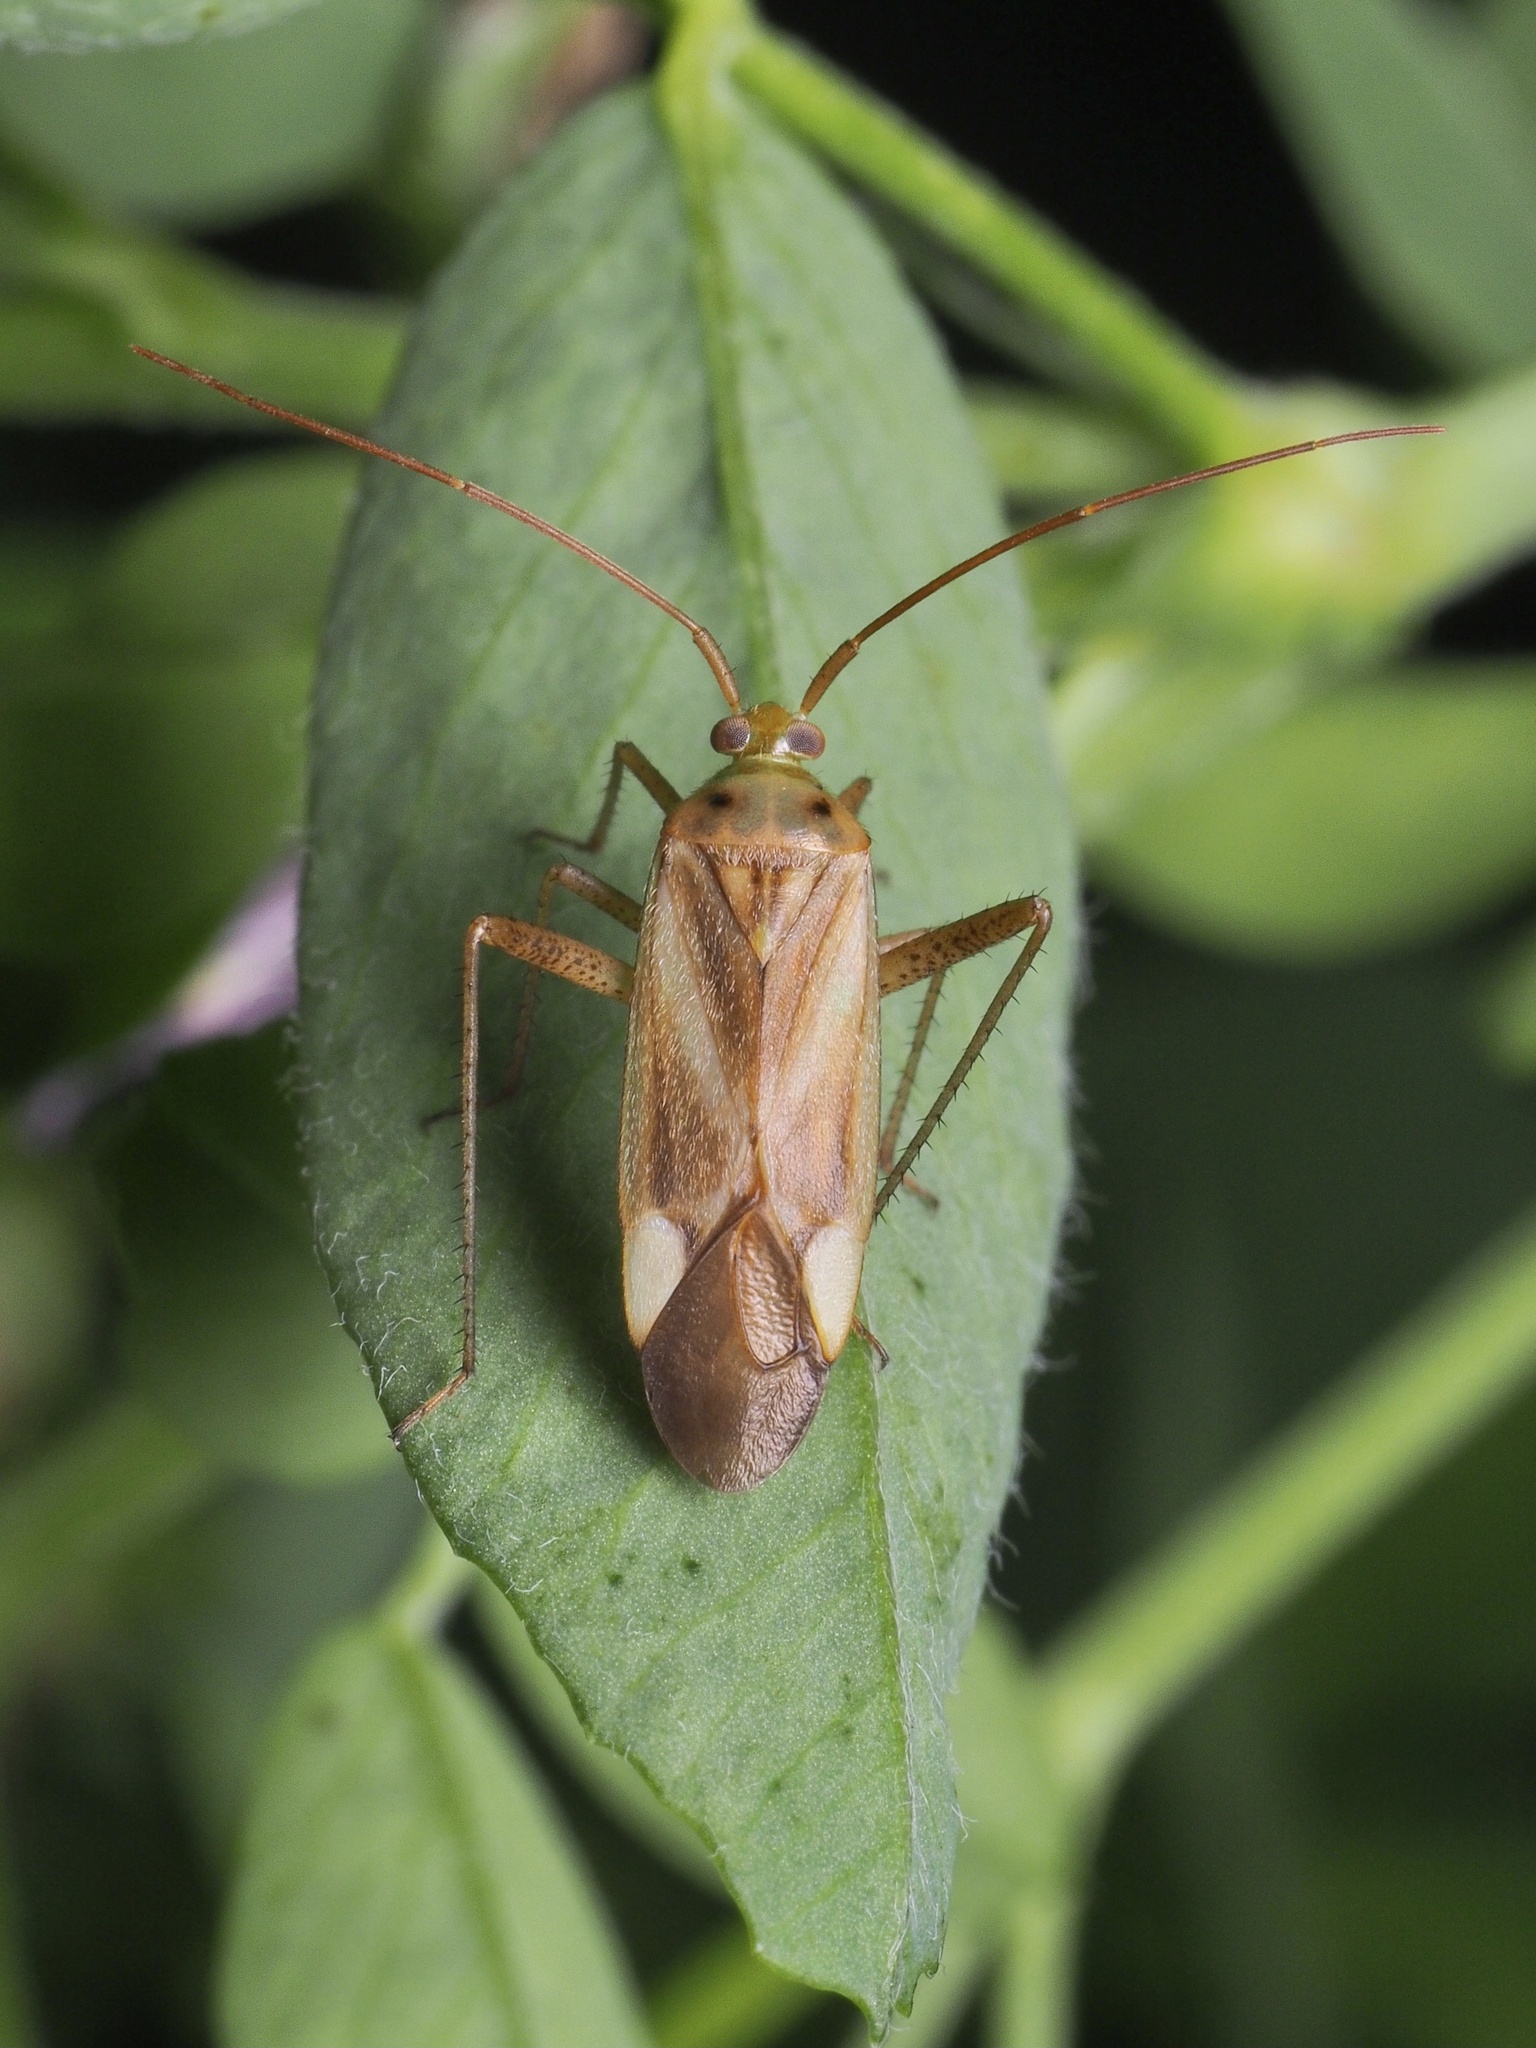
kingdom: Animalia
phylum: Arthropoda
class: Insecta
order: Hemiptera
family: Miridae
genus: Adelphocoris
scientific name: Adelphocoris lineolatus
